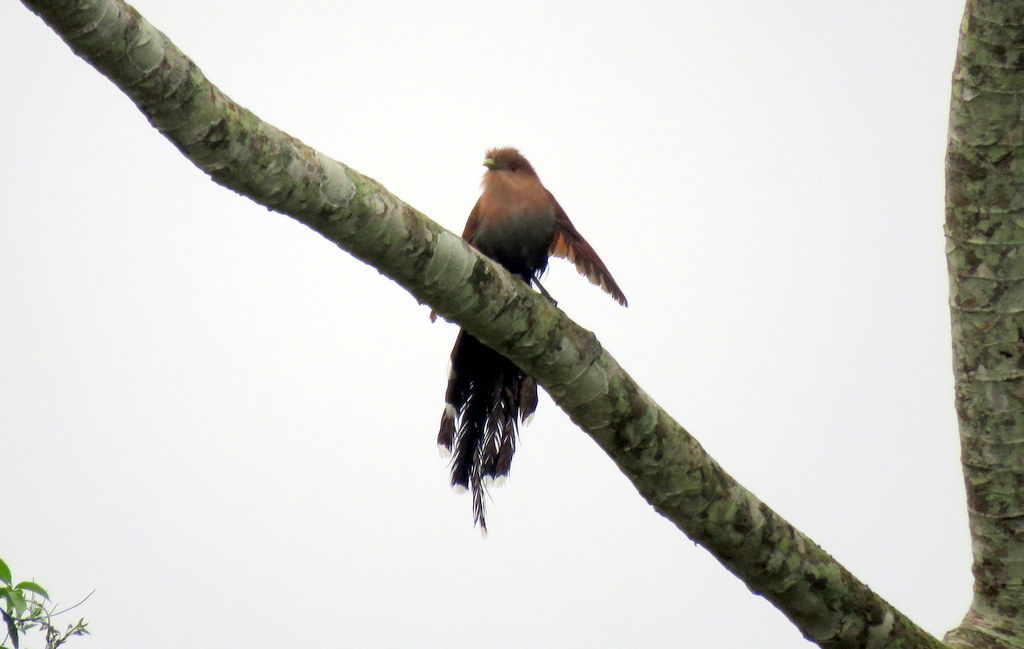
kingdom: Animalia
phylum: Chordata
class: Aves
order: Cuculiformes
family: Cuculidae
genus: Piaya
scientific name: Piaya cayana
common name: Squirrel cuckoo
